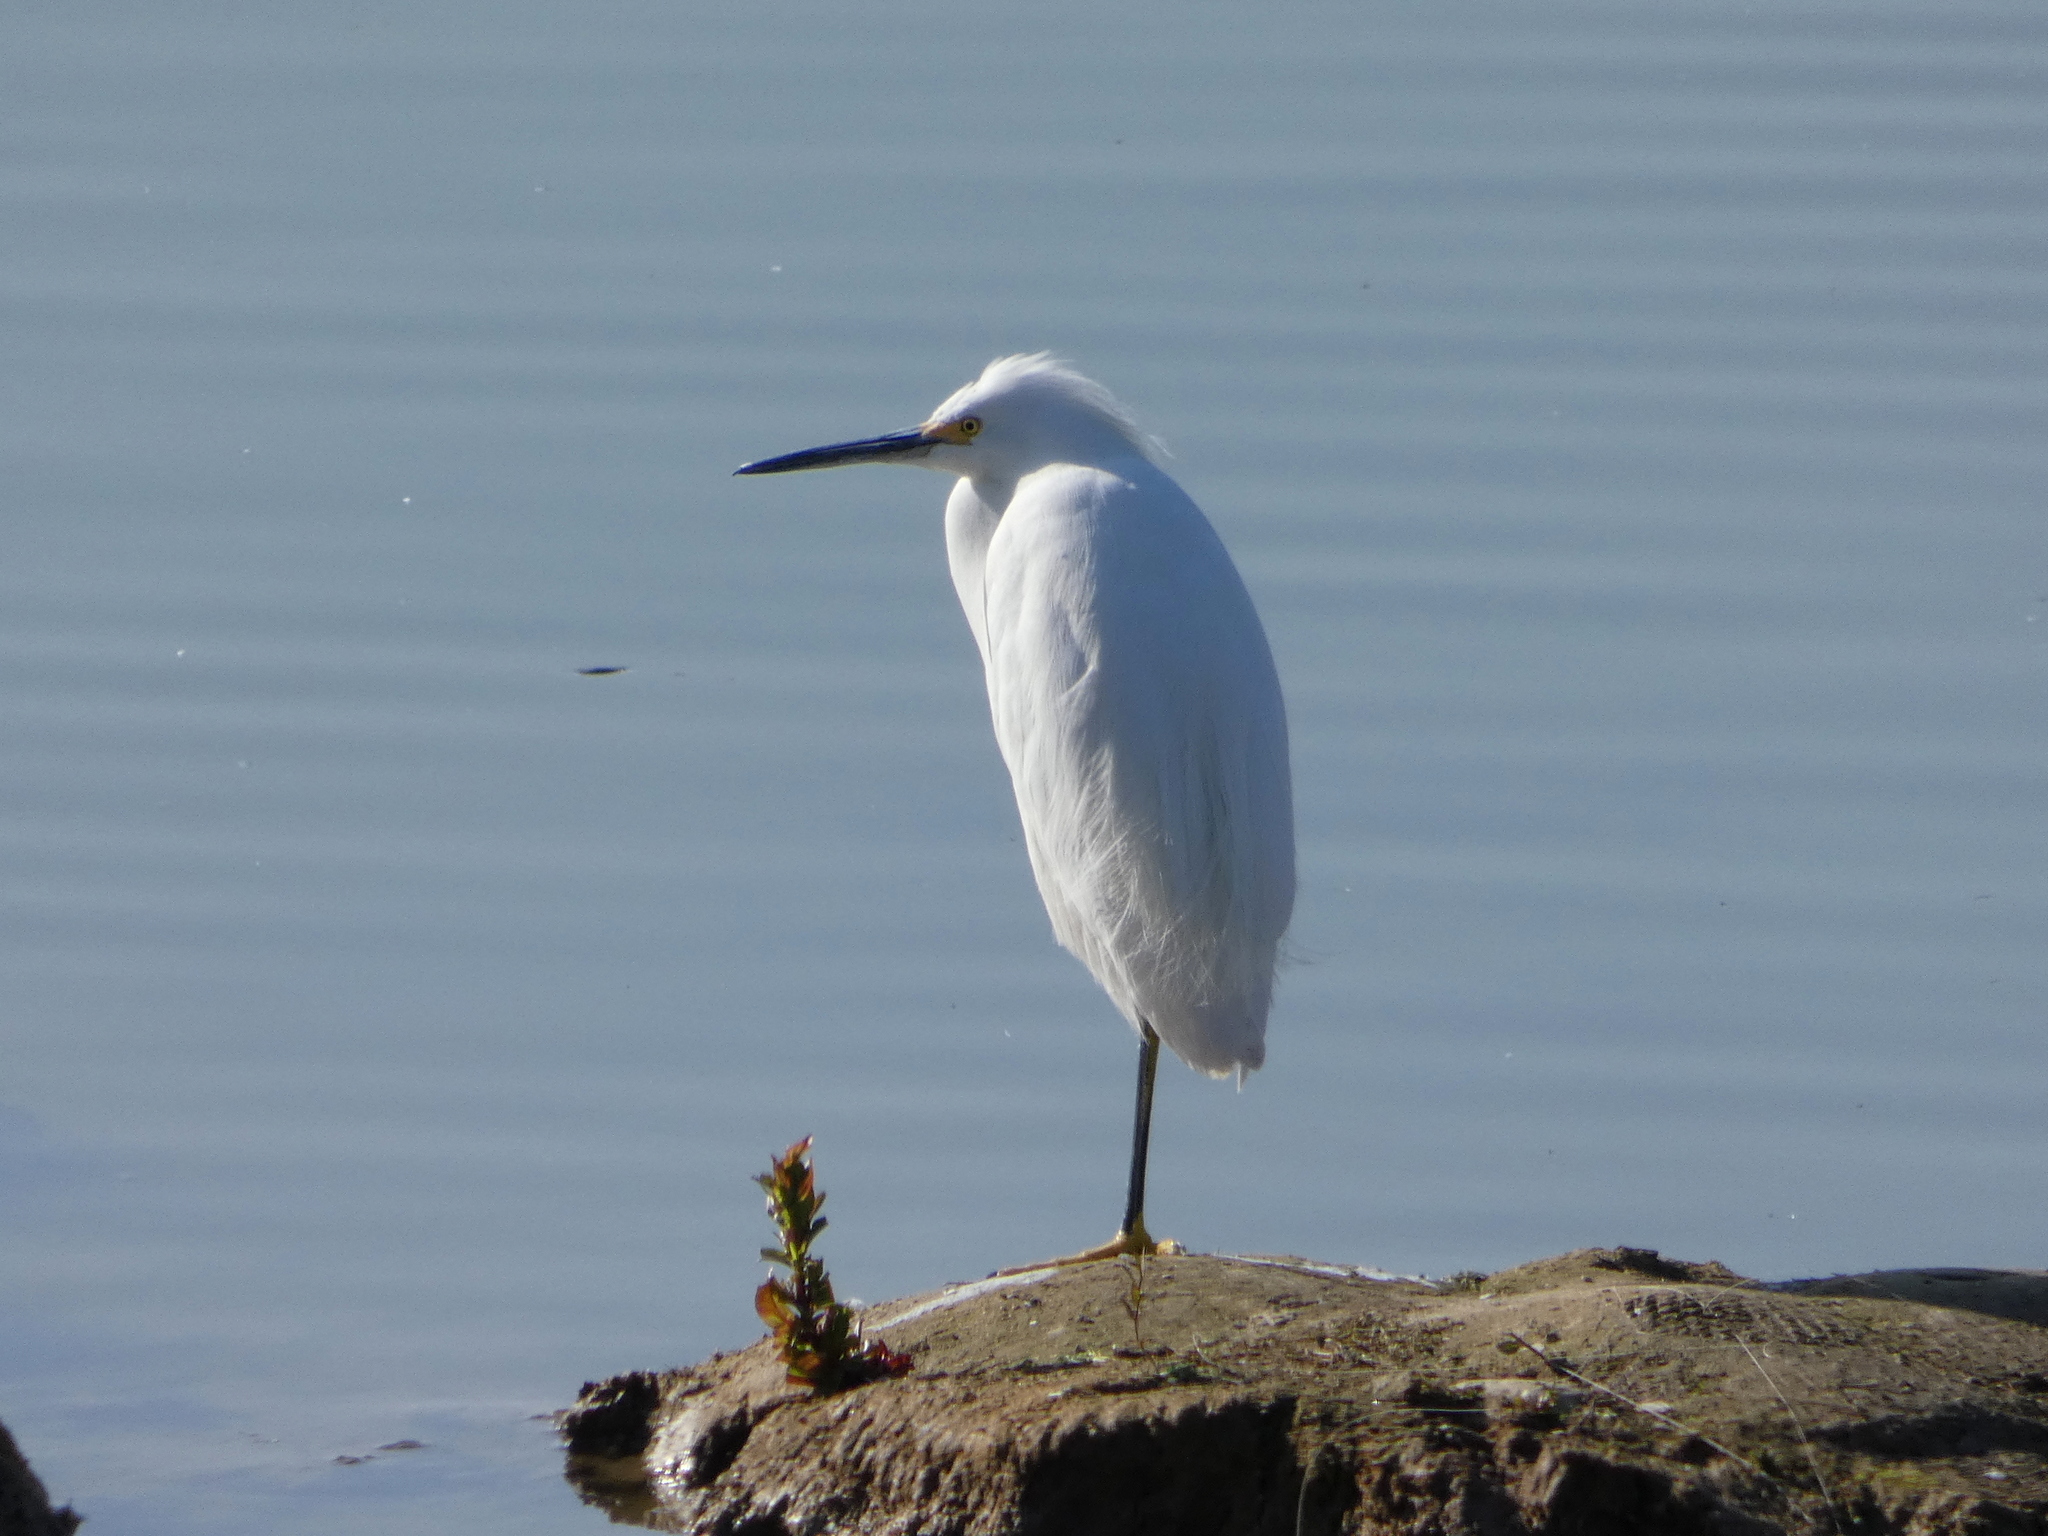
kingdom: Animalia
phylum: Chordata
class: Aves
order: Pelecaniformes
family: Ardeidae
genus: Egretta
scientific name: Egretta thula
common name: Snowy egret
